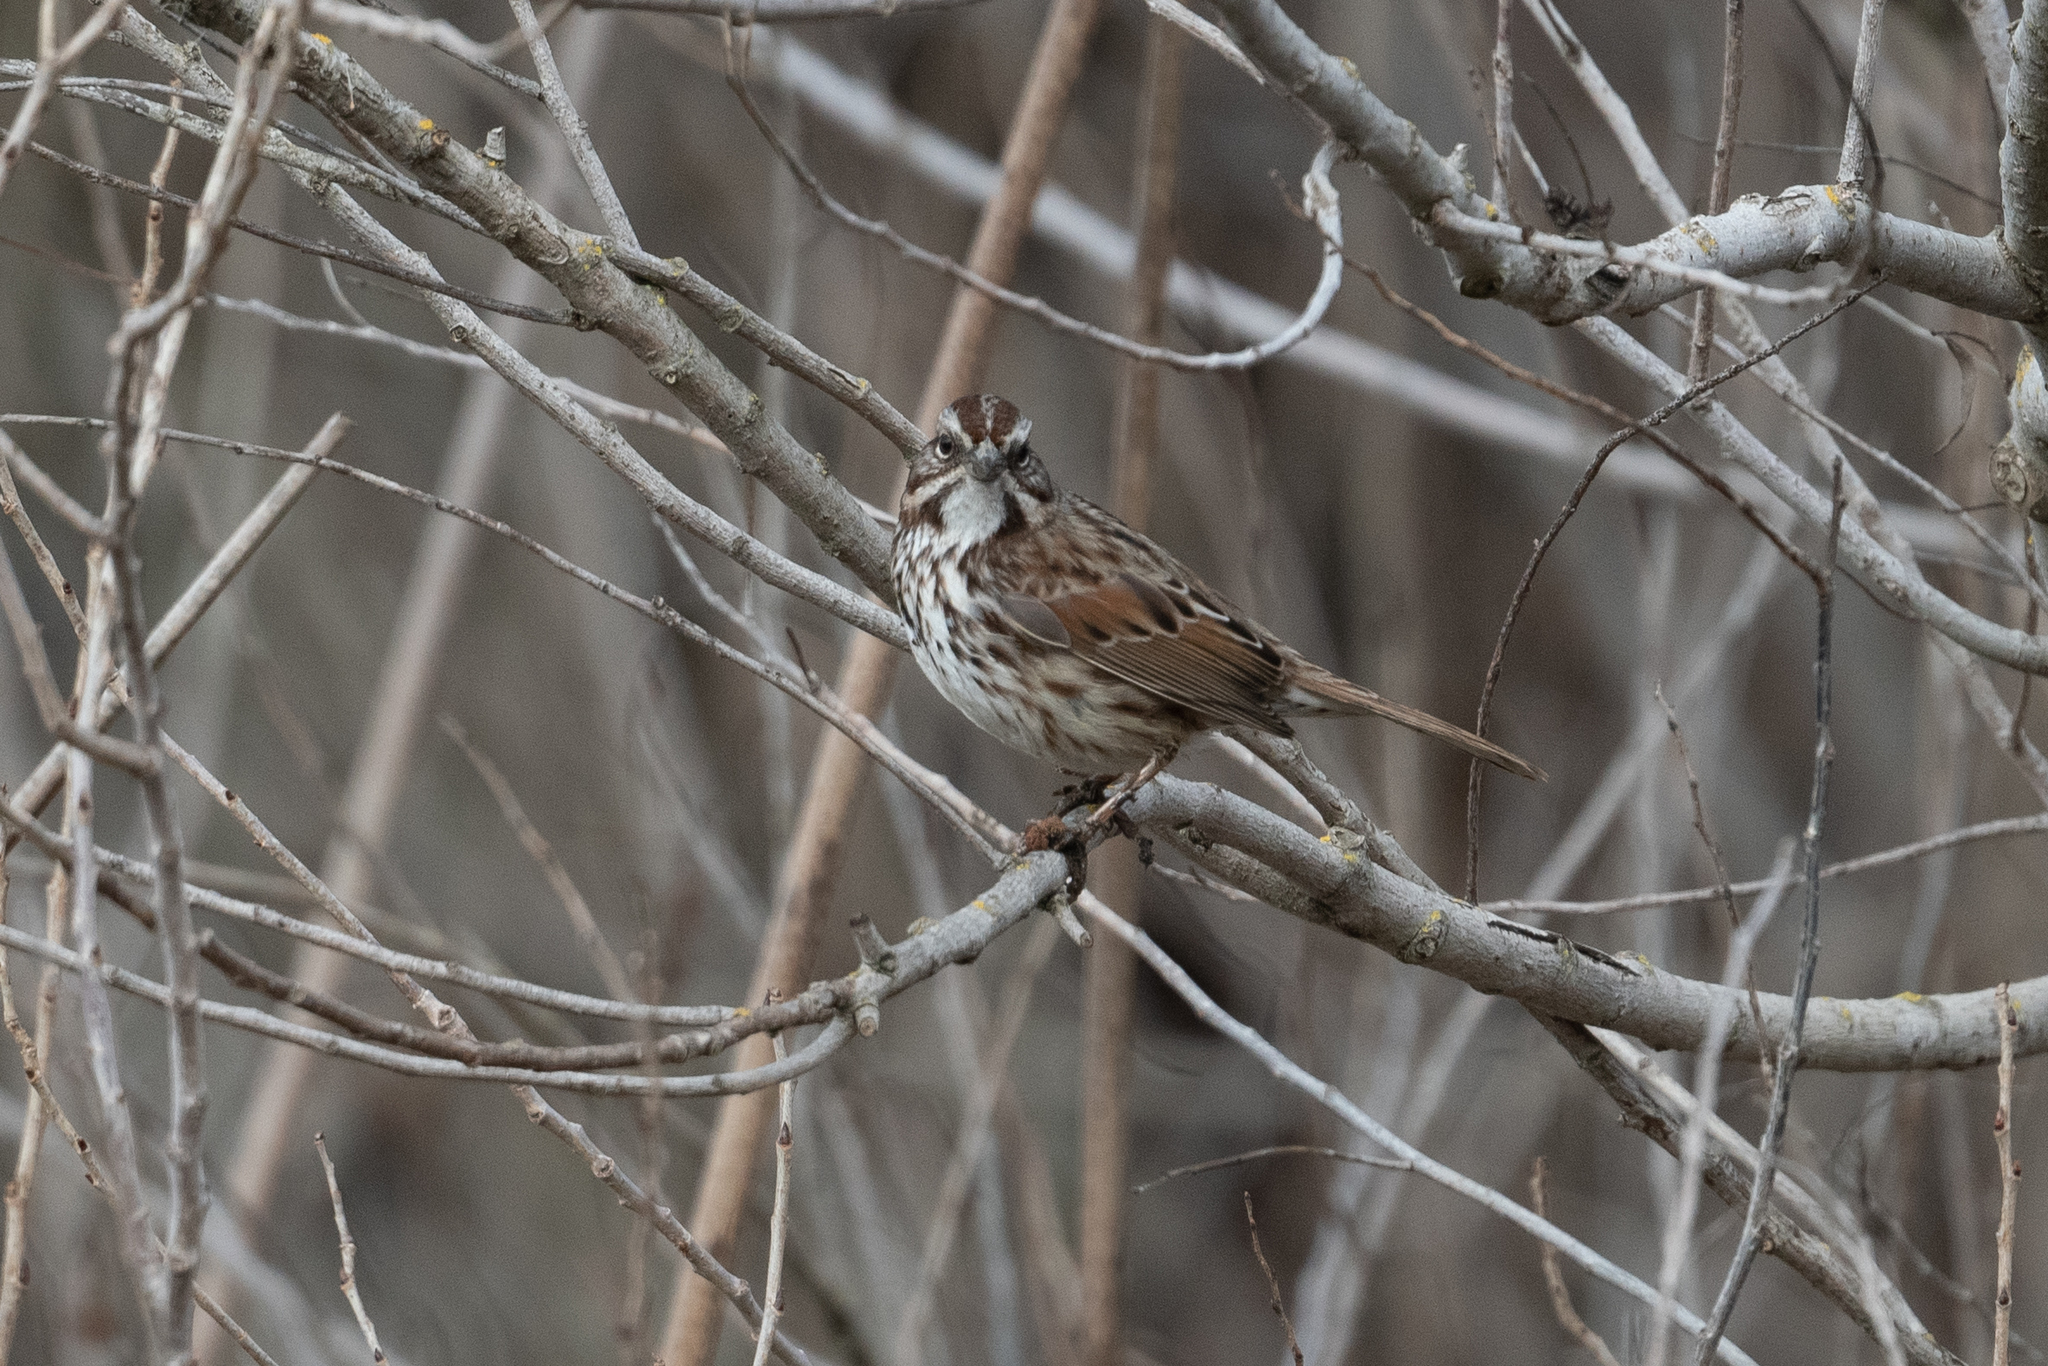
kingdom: Animalia
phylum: Chordata
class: Aves
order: Passeriformes
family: Passerellidae
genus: Melospiza
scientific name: Melospiza melodia
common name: Song sparrow
